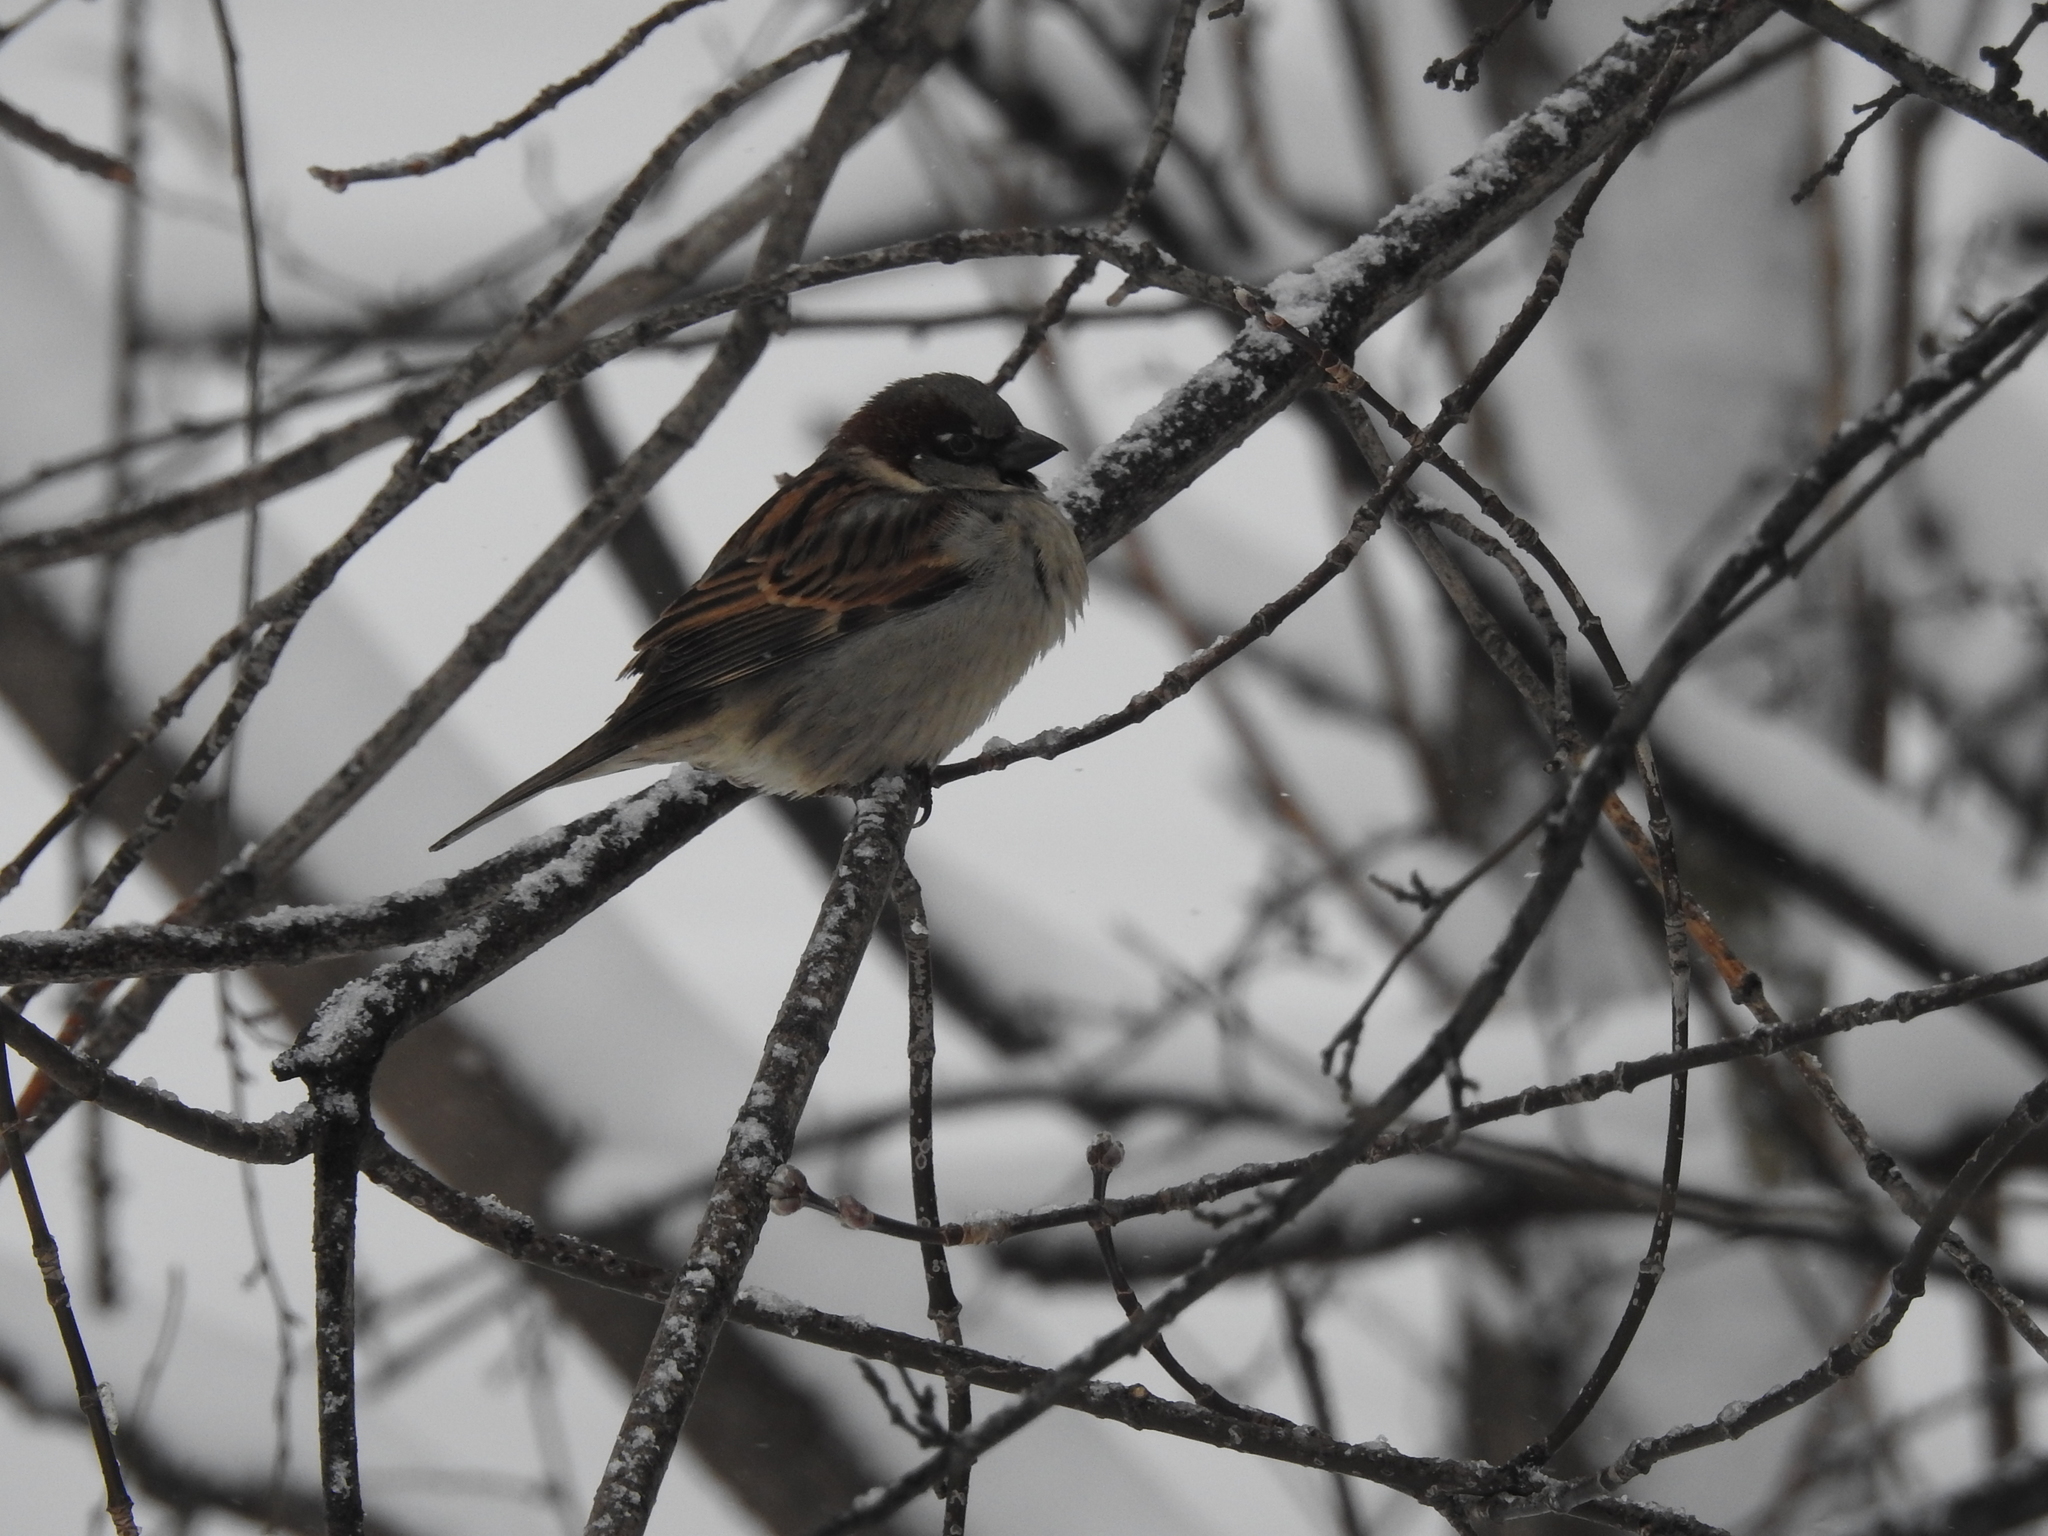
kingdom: Animalia
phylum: Chordata
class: Aves
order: Passeriformes
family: Passeridae
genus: Passer
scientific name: Passer domesticus
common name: House sparrow
